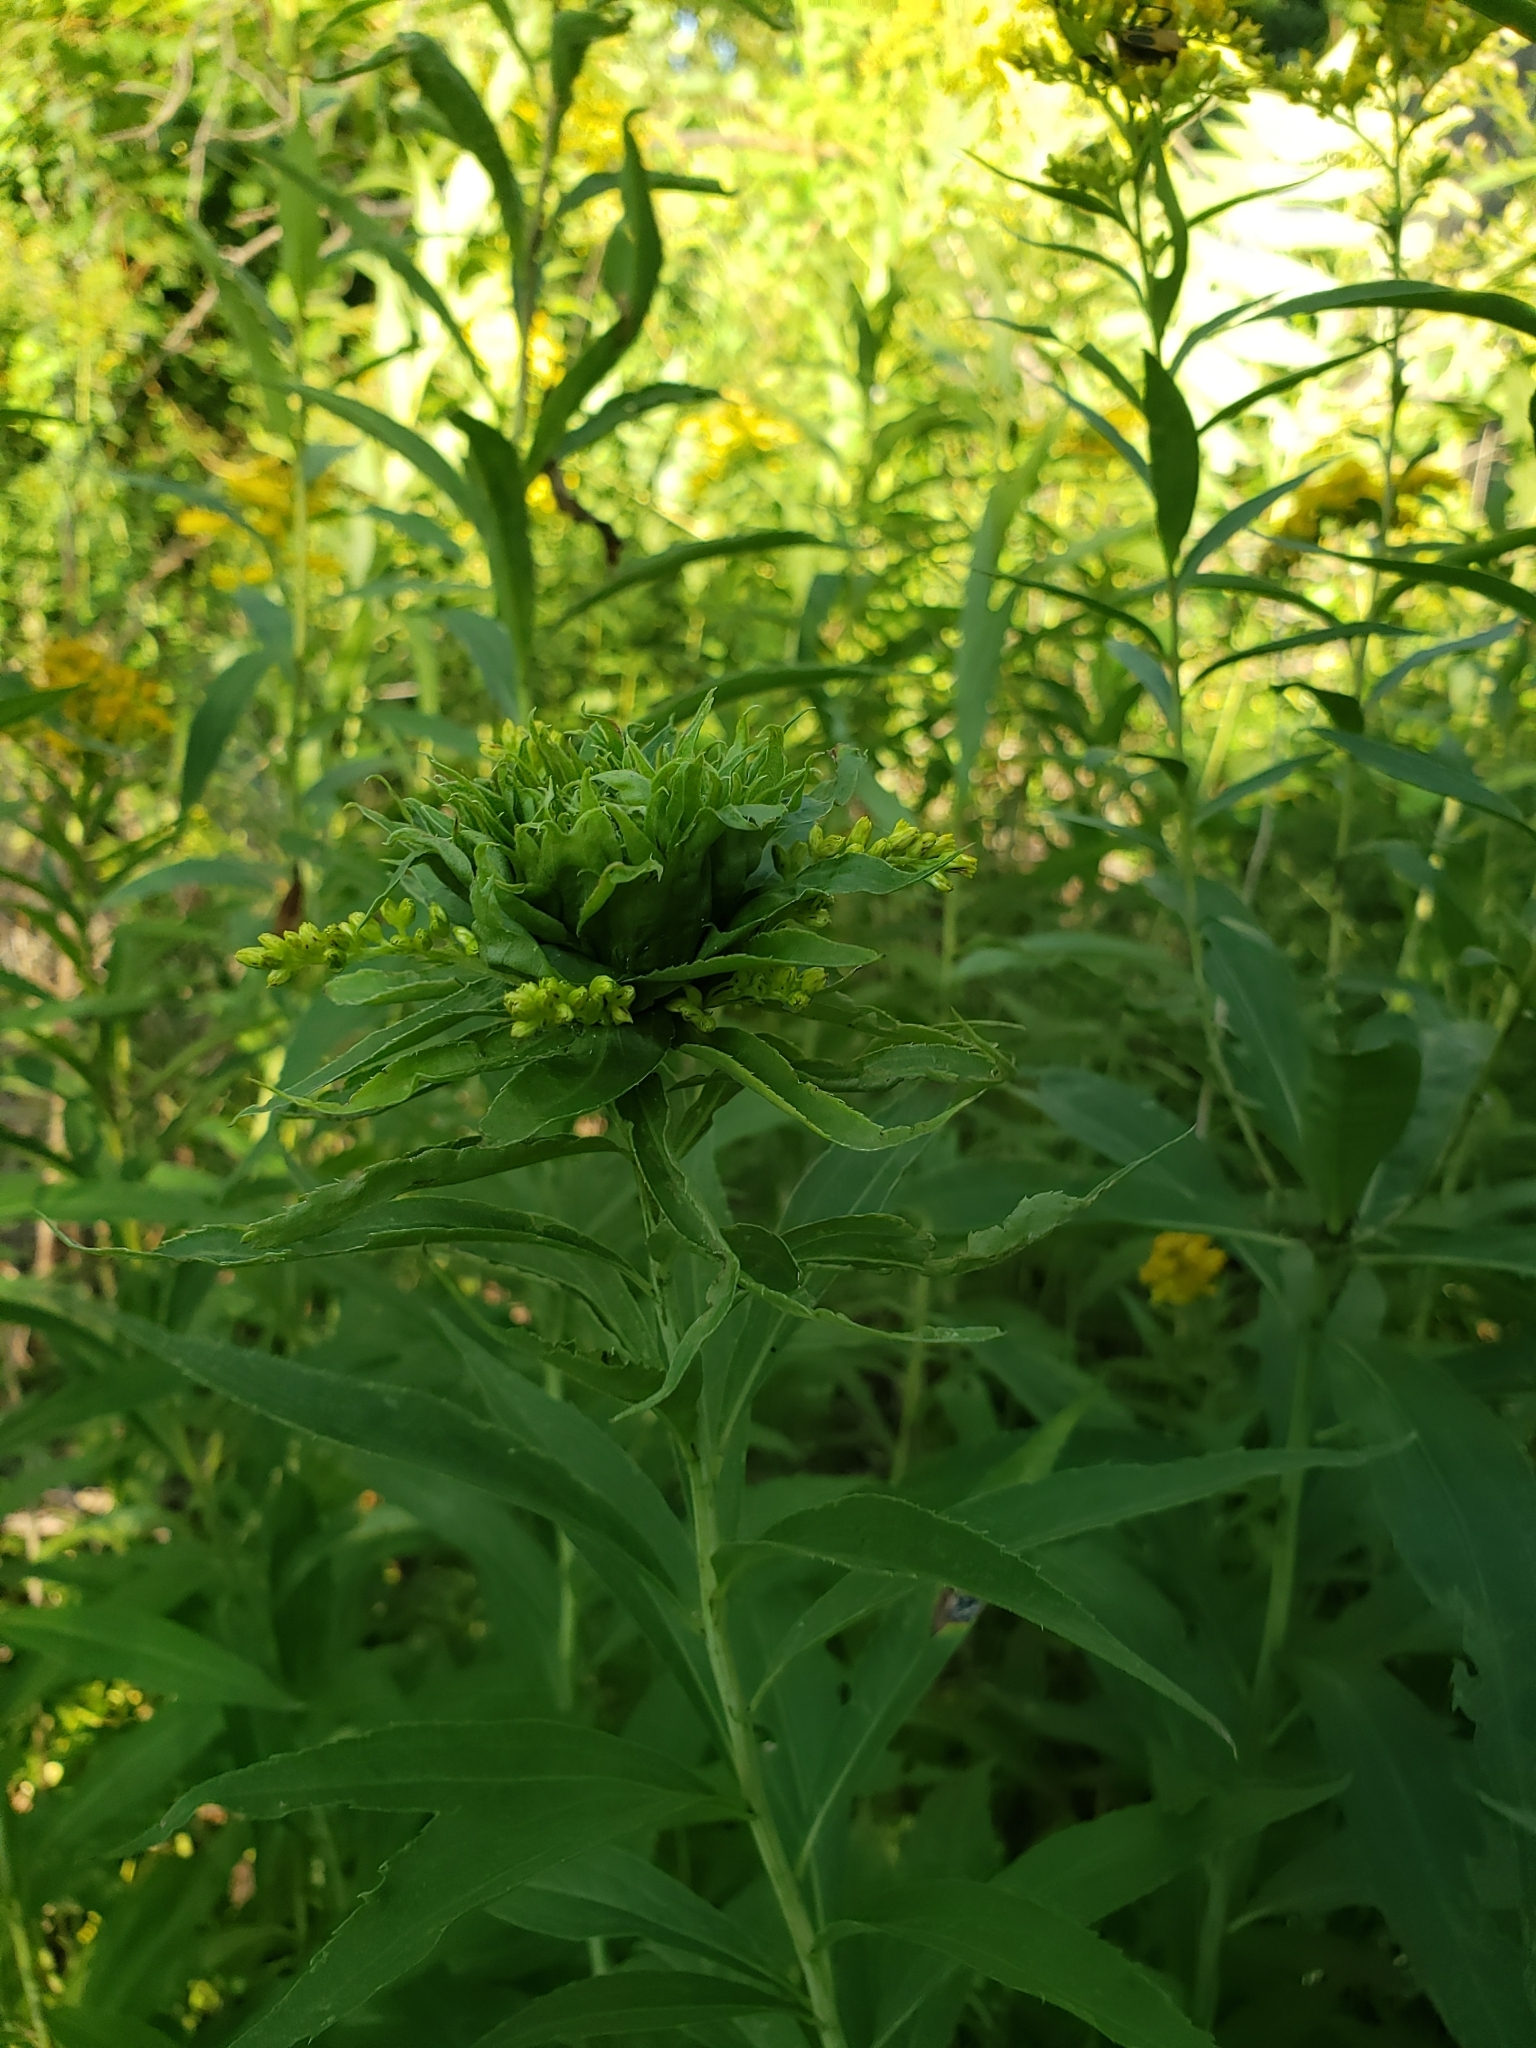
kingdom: Animalia
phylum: Arthropoda
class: Insecta
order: Diptera
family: Cecidomyiidae
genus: Rhopalomyia
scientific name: Rhopalomyia capitata
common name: Giant goldenrod bunch gall midge
